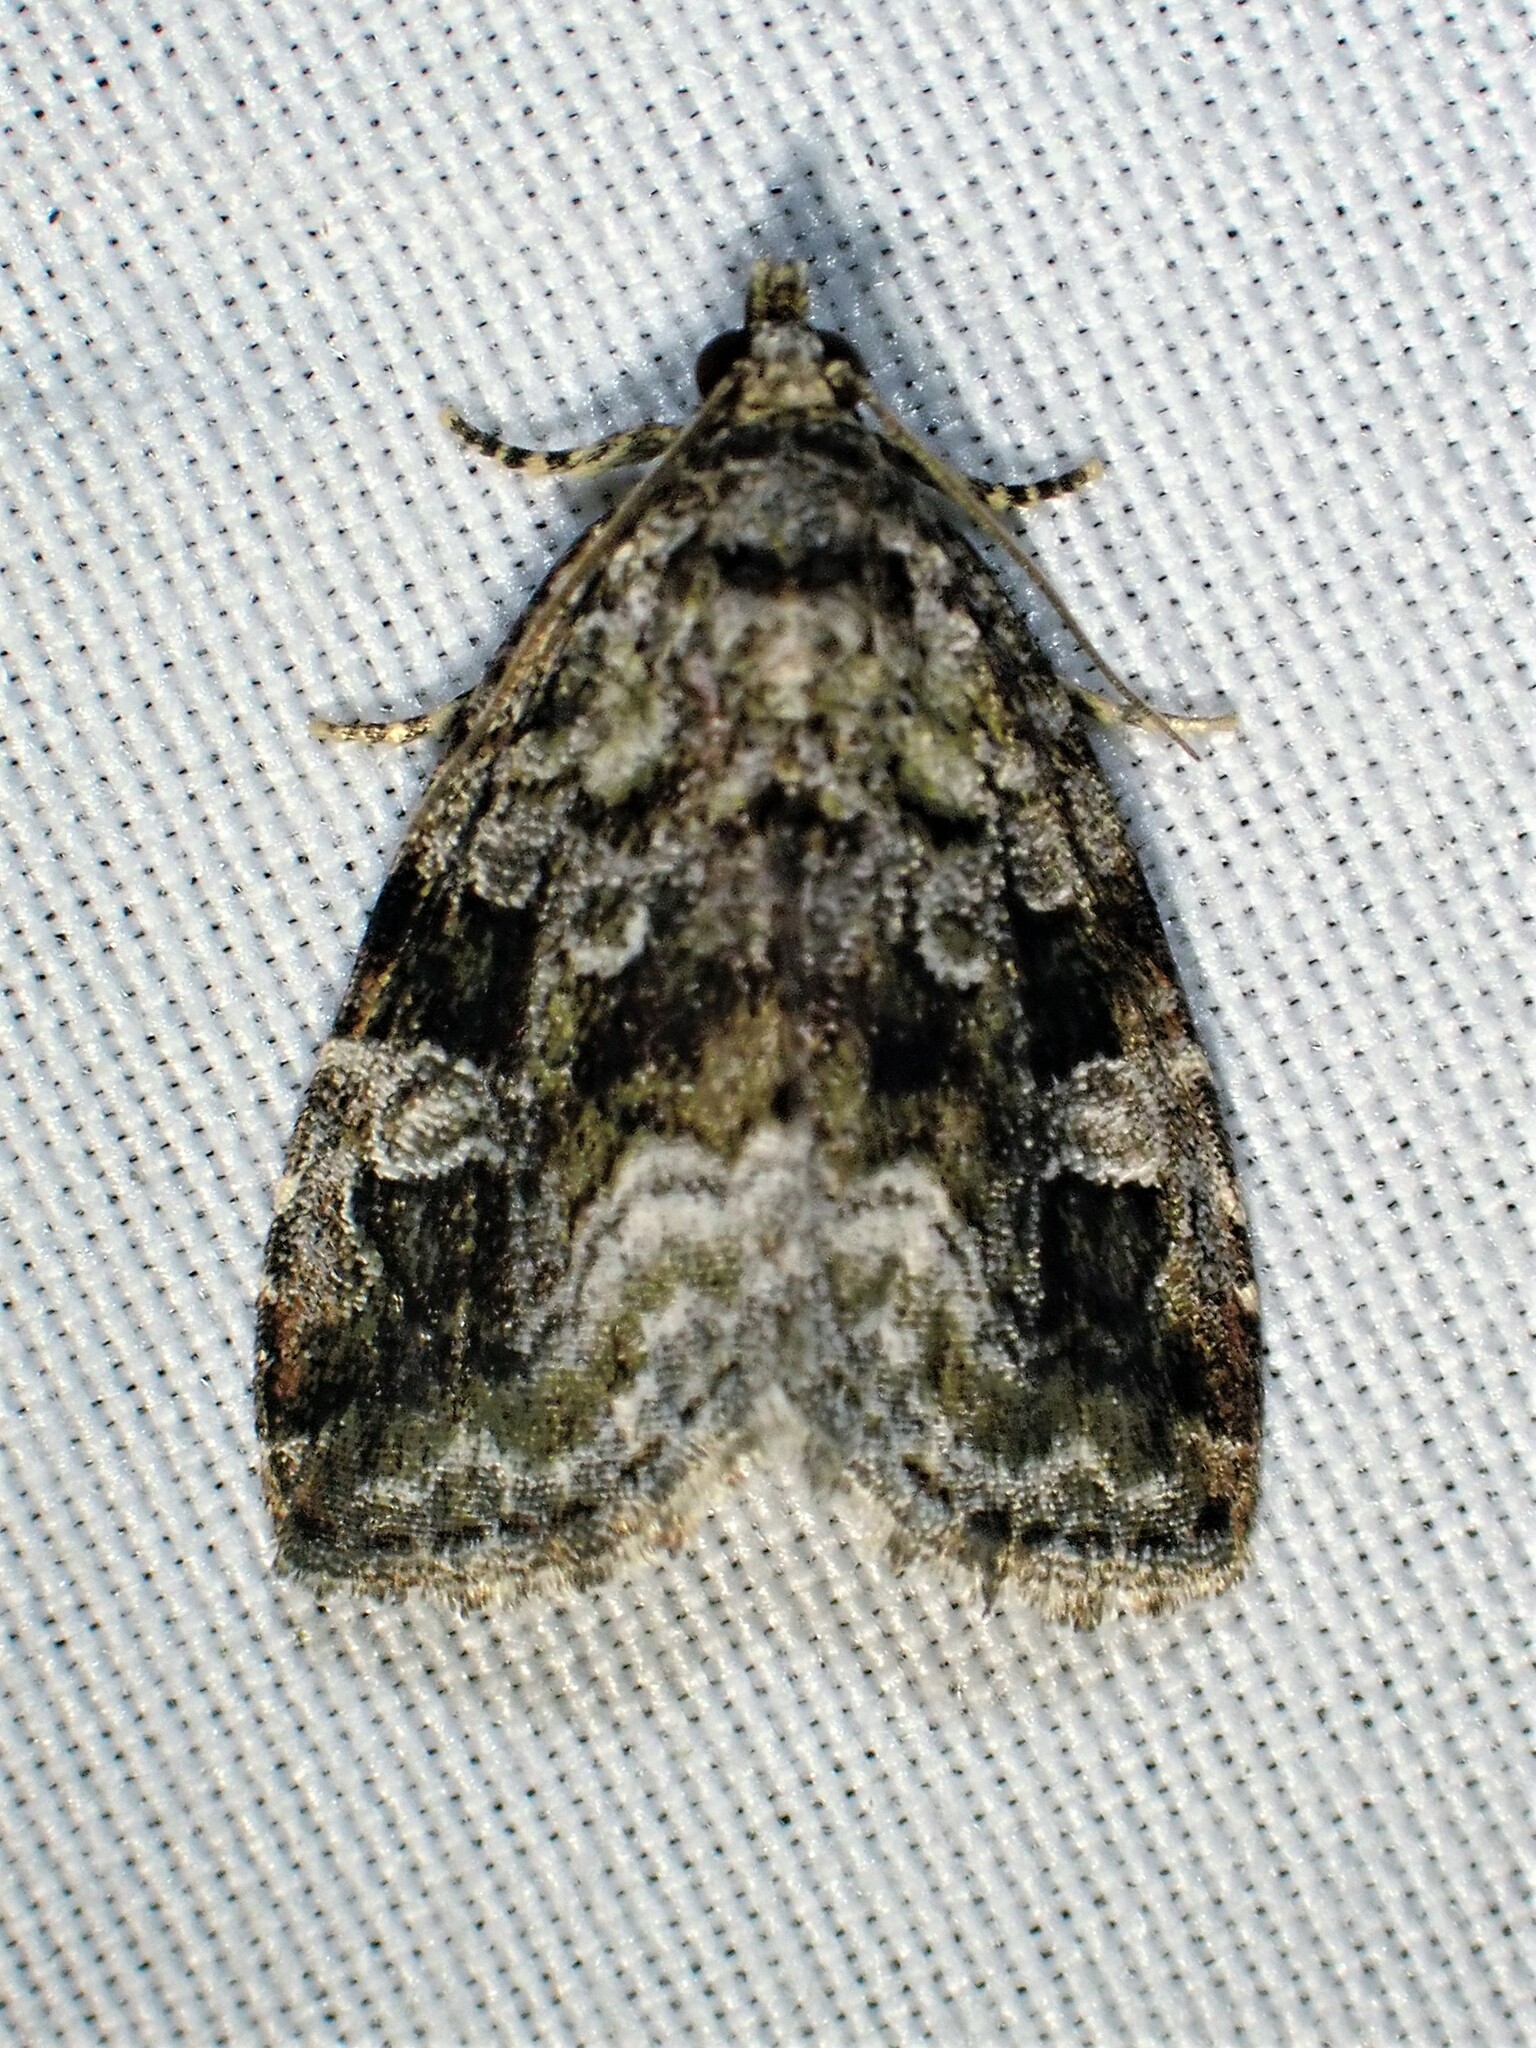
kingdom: Animalia
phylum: Arthropoda
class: Insecta
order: Lepidoptera
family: Noctuidae
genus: Protodeltote
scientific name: Protodeltote muscosula
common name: Large mossy glyph
